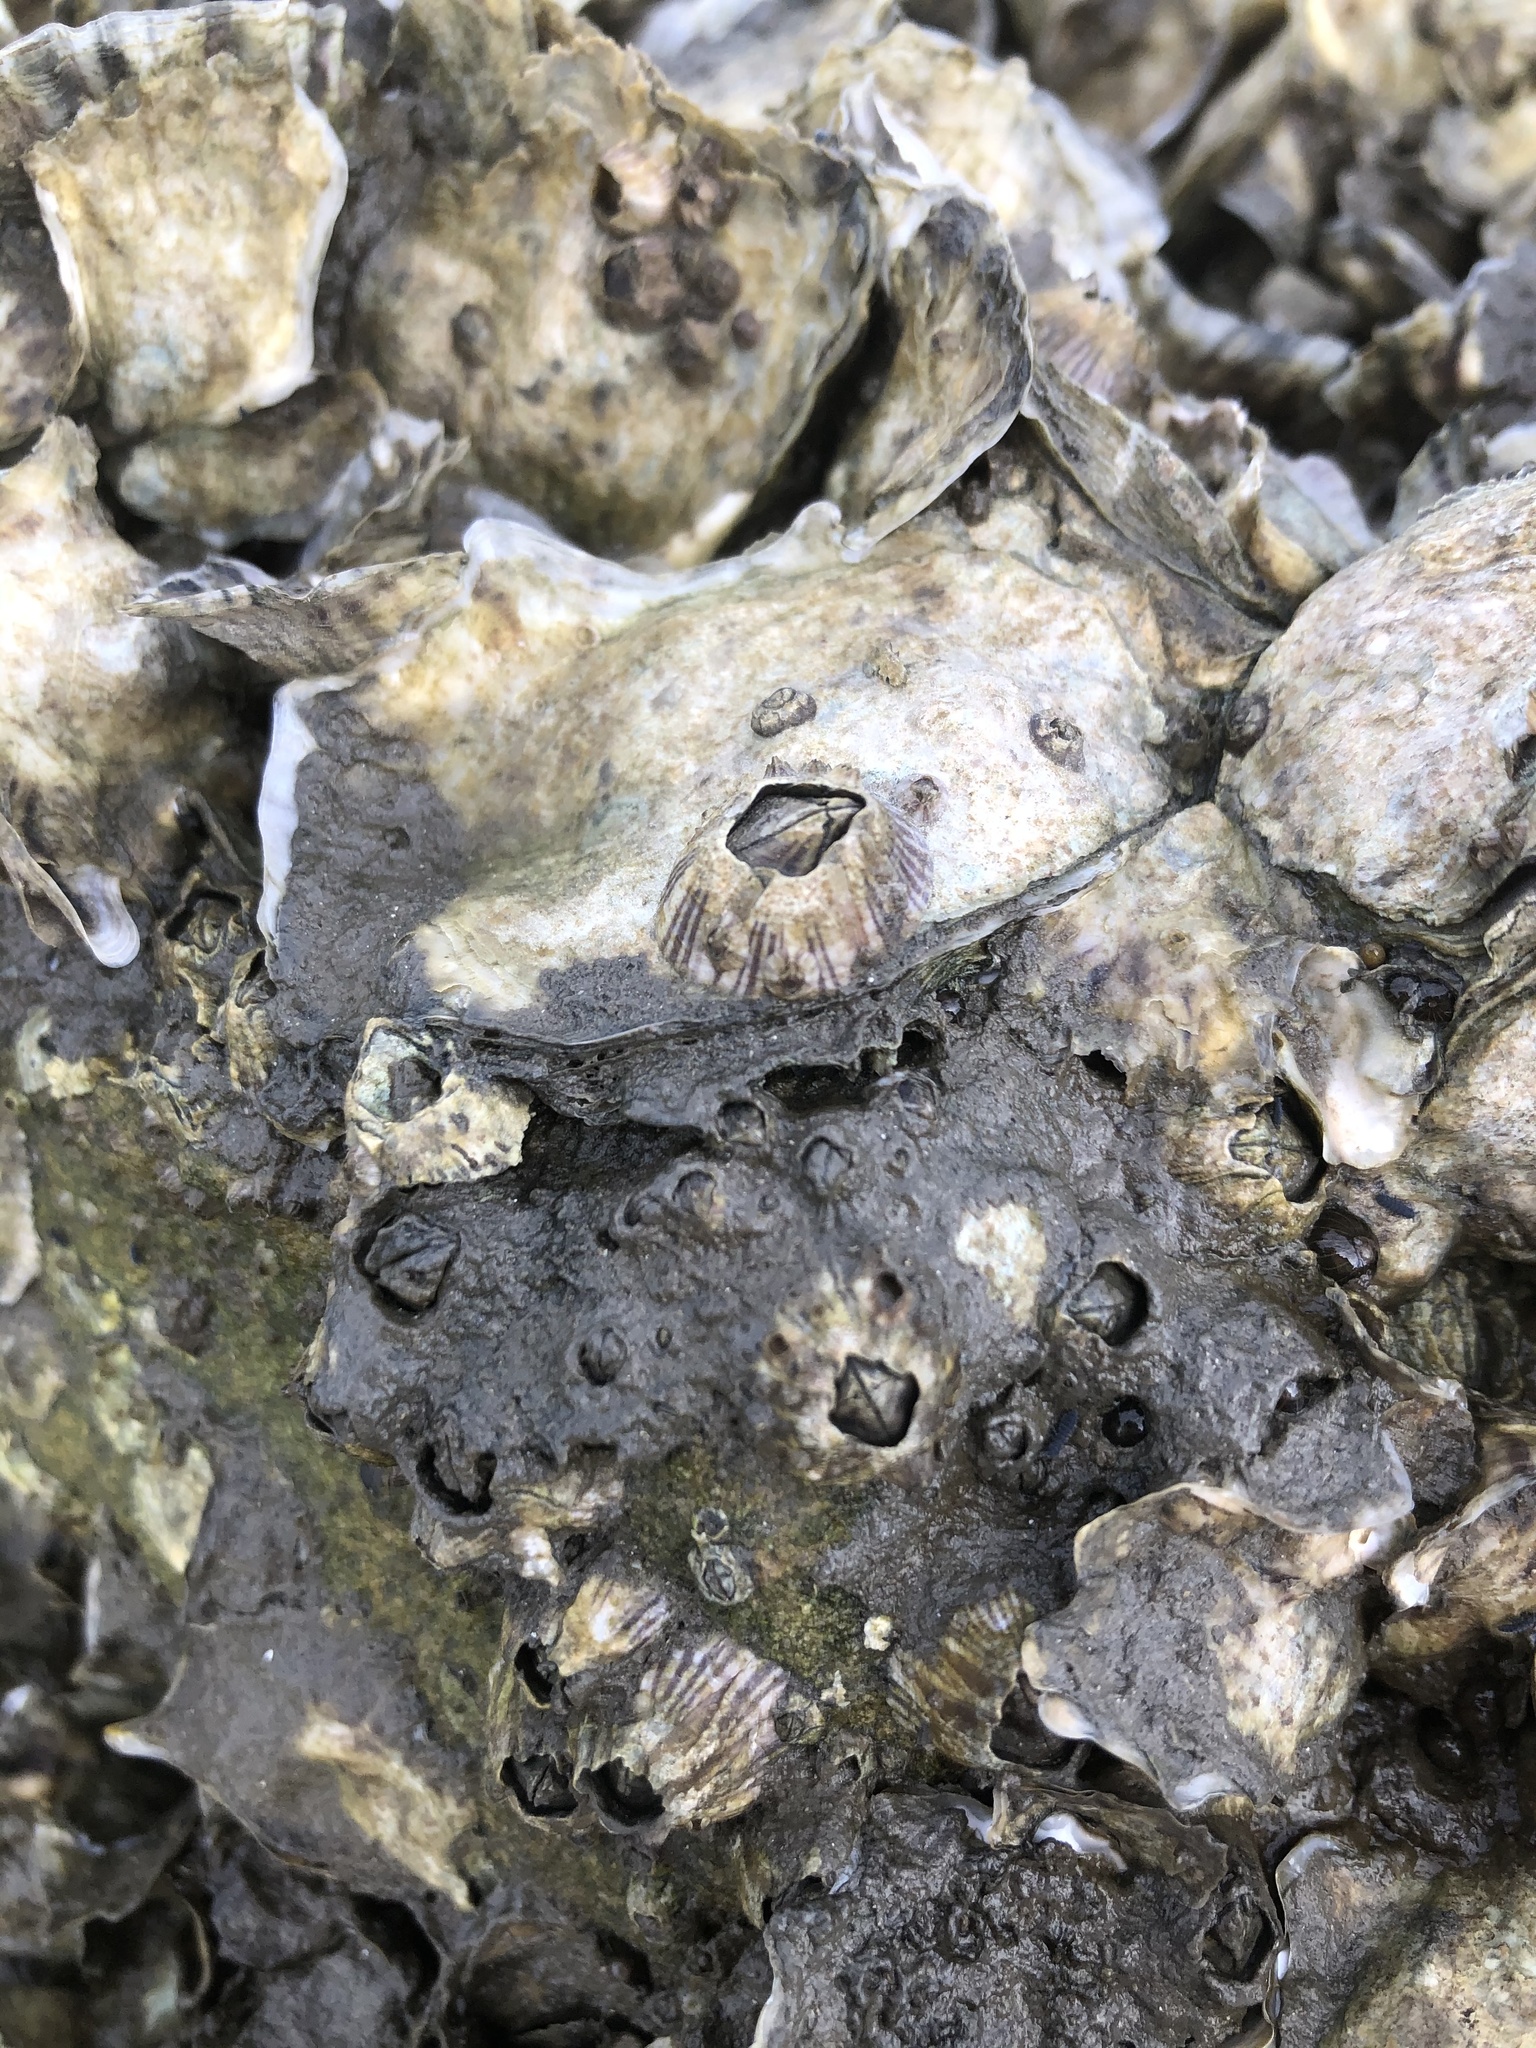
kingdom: Animalia
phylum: Arthropoda
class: Maxillopoda
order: Sessilia
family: Balanidae
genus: Amphibalanus
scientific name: Amphibalanus amphitrite
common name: Striped acorn barnacle
